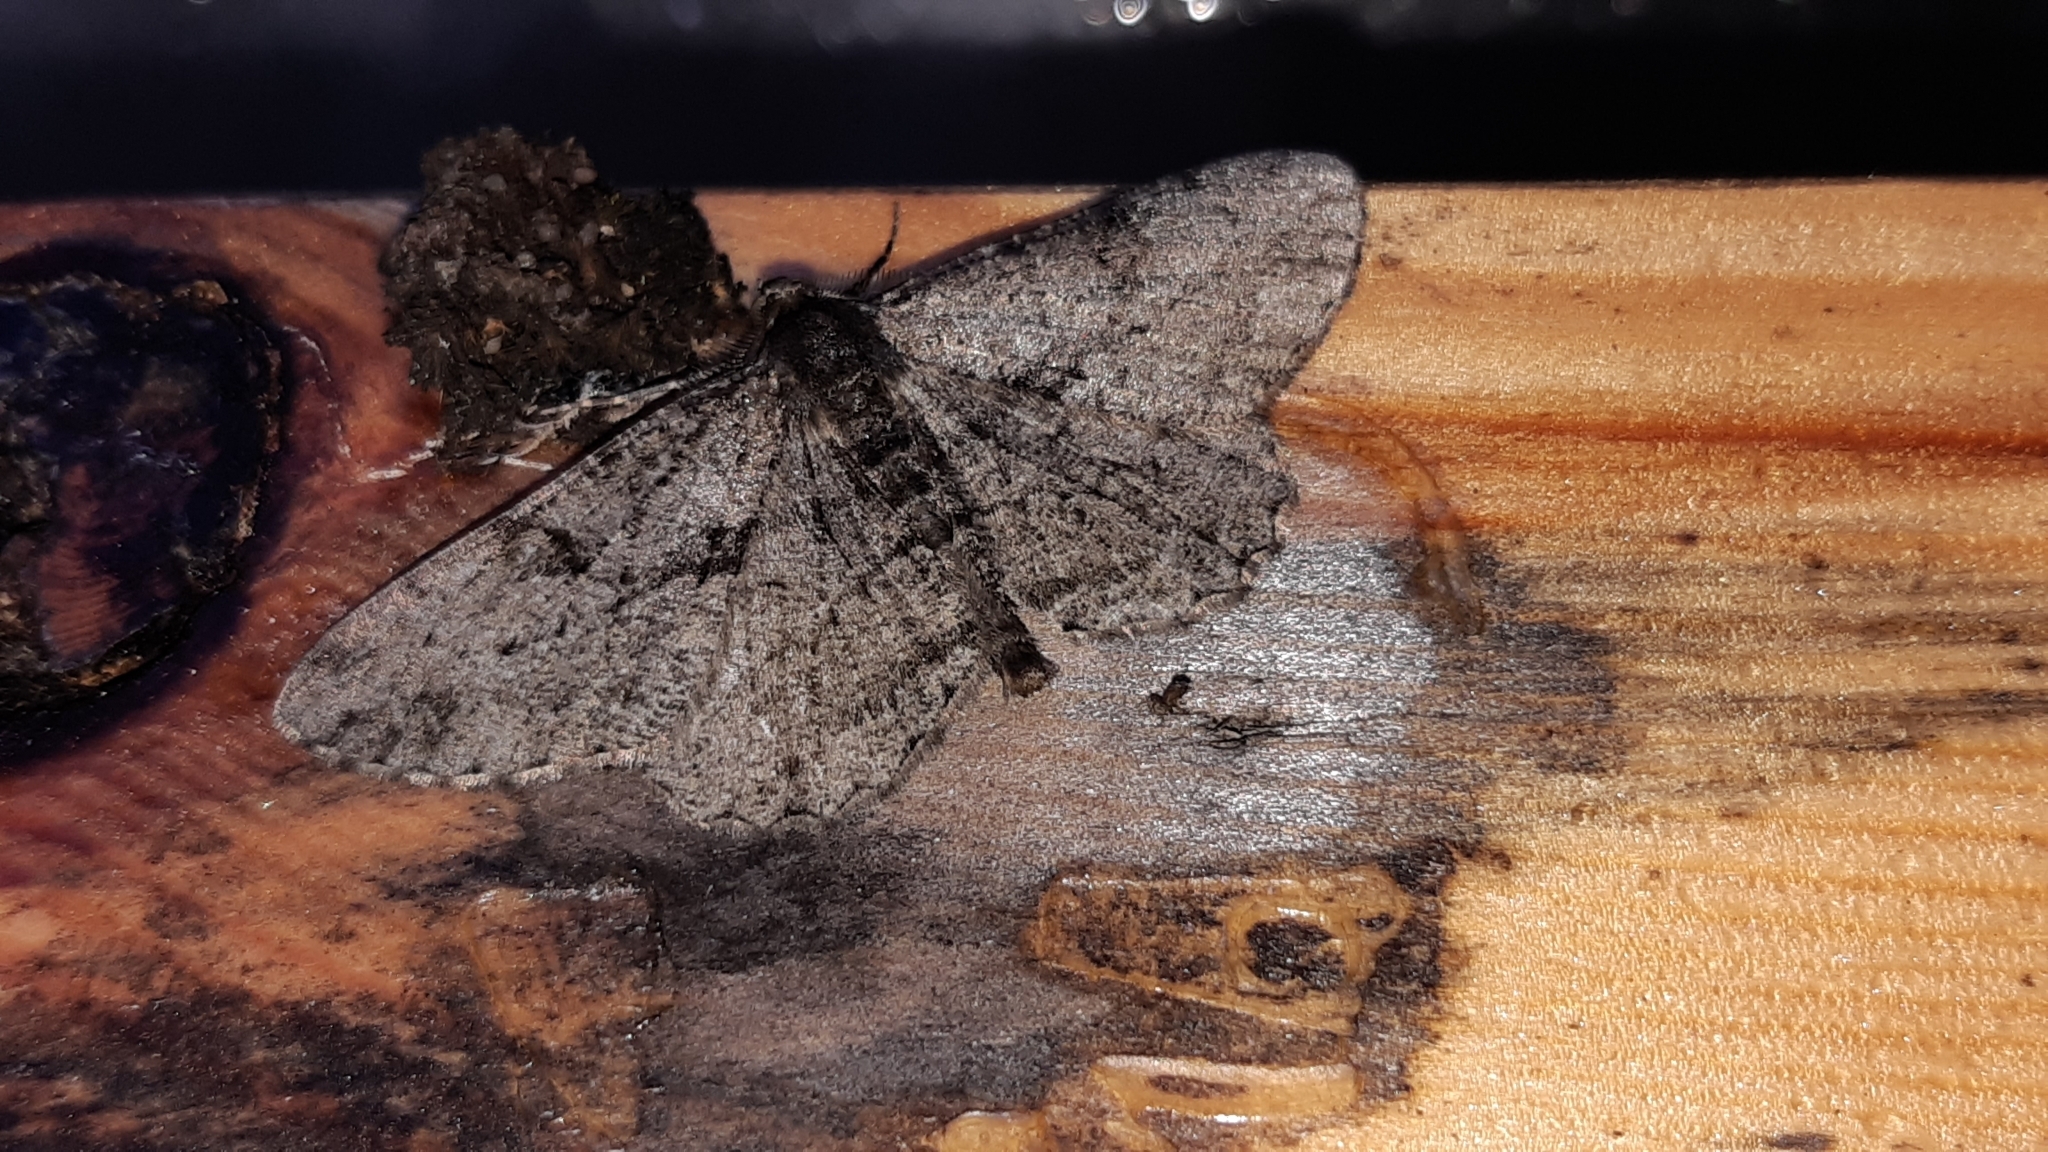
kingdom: Animalia
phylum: Arthropoda
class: Insecta
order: Lepidoptera
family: Geometridae
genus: Peribatodes
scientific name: Peribatodes rhomboidaria
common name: Willow beauty
